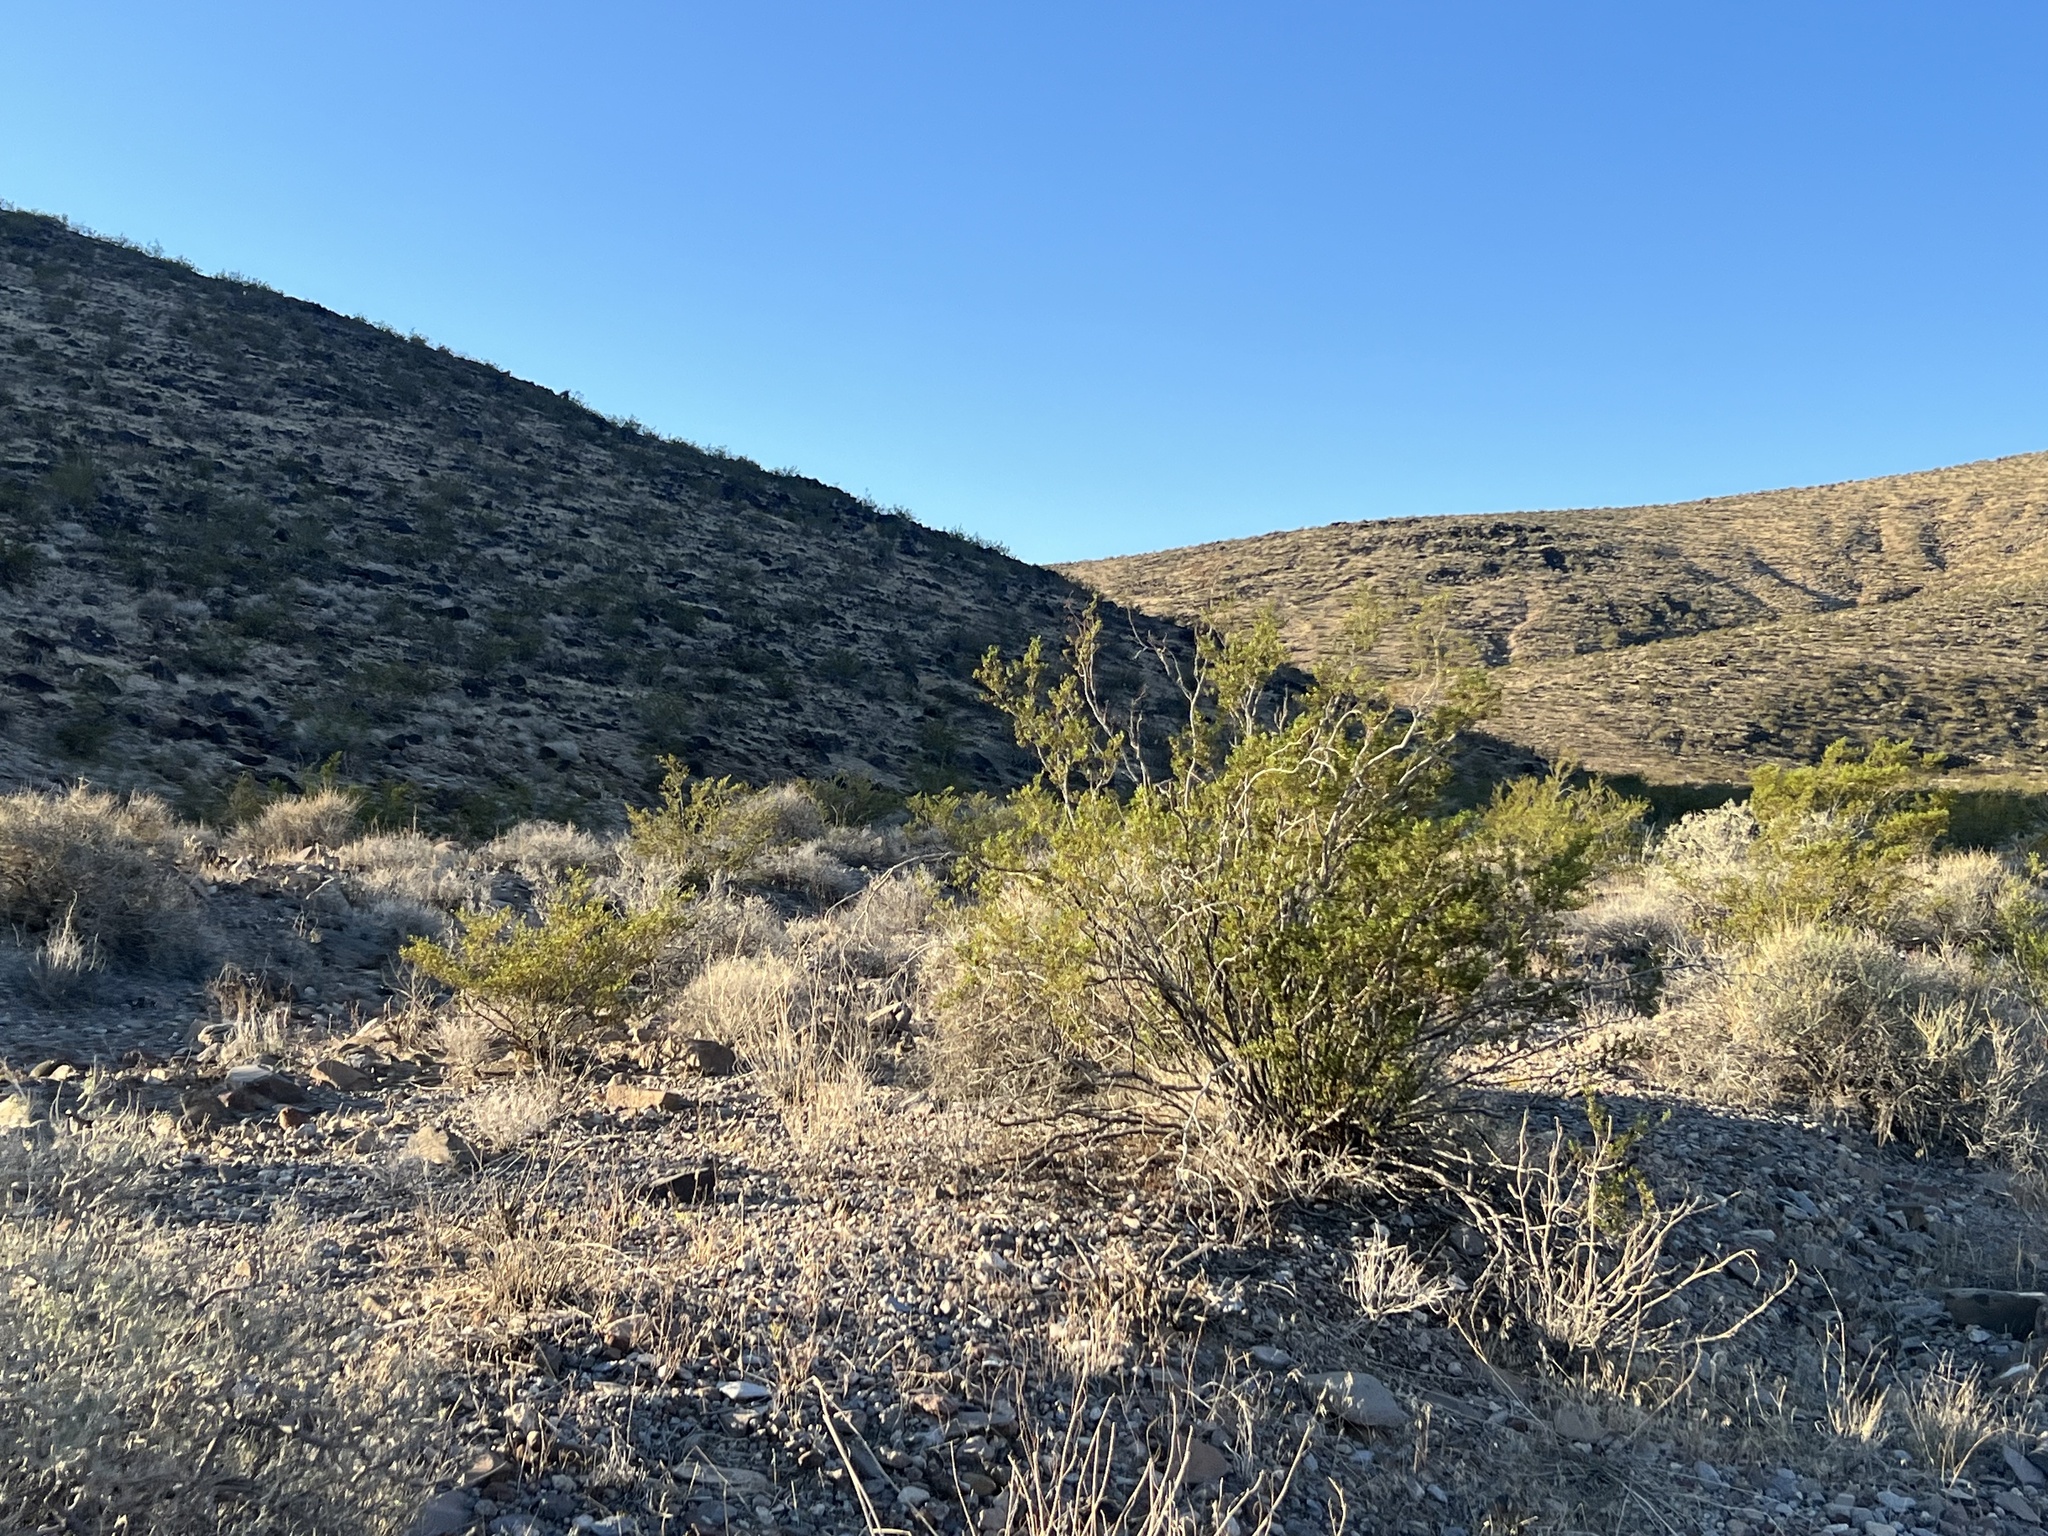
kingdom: Plantae
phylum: Tracheophyta
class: Magnoliopsida
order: Zygophyllales
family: Zygophyllaceae
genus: Larrea
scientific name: Larrea tridentata
